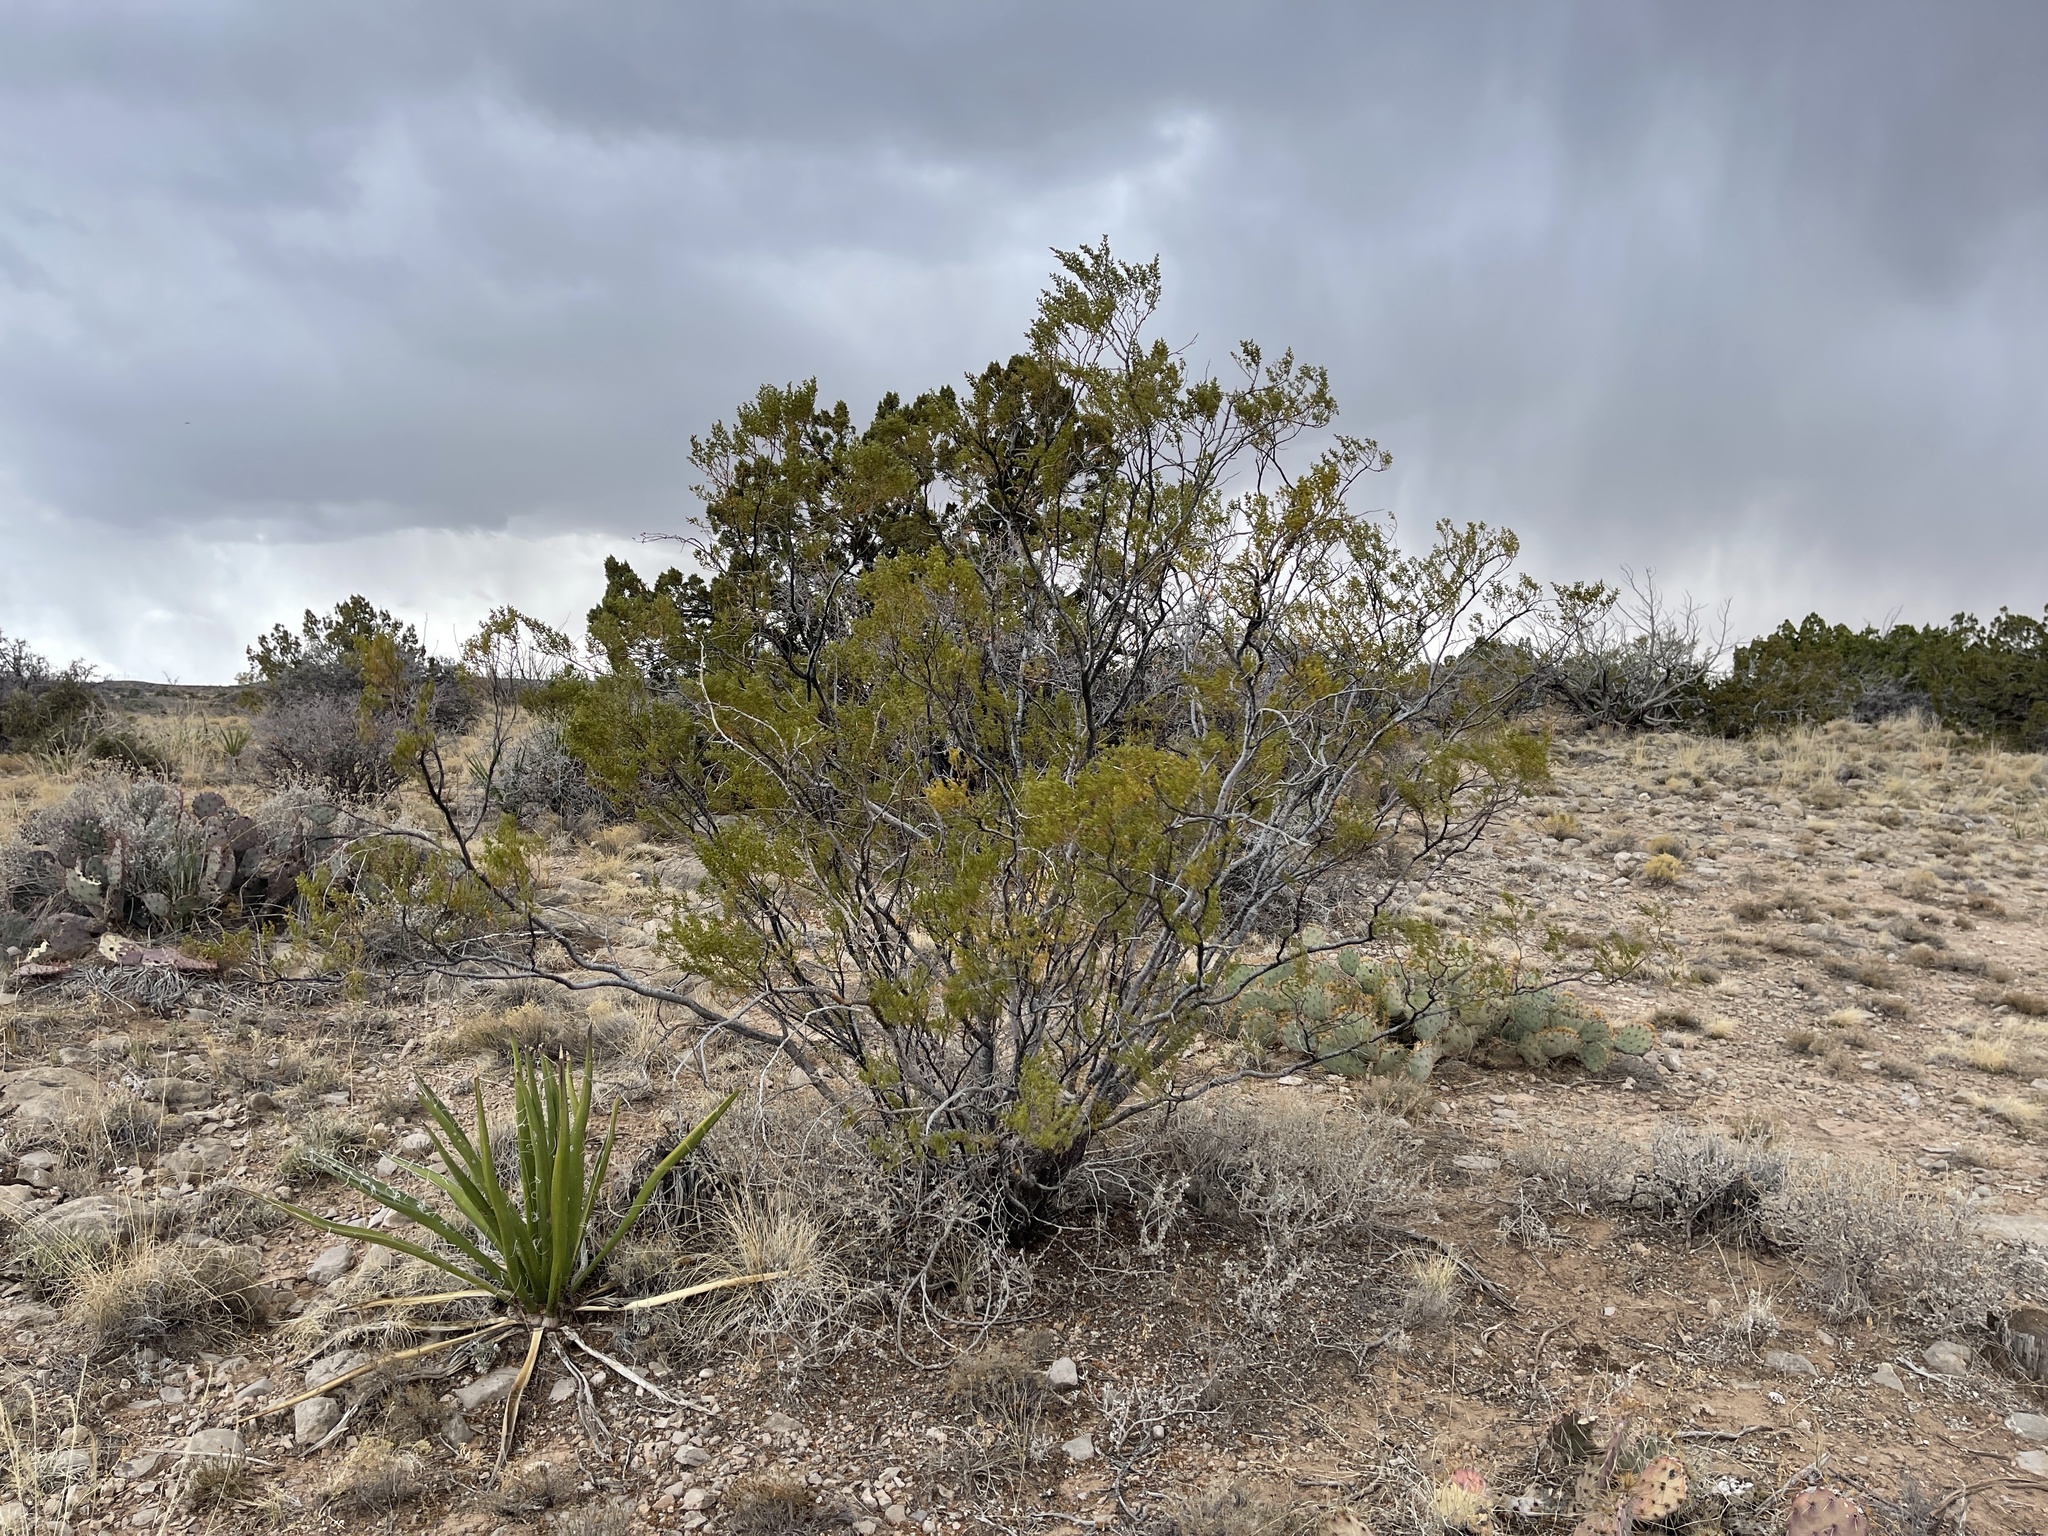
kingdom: Plantae
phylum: Tracheophyta
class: Magnoliopsida
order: Zygophyllales
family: Zygophyllaceae
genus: Larrea
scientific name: Larrea tridentata
